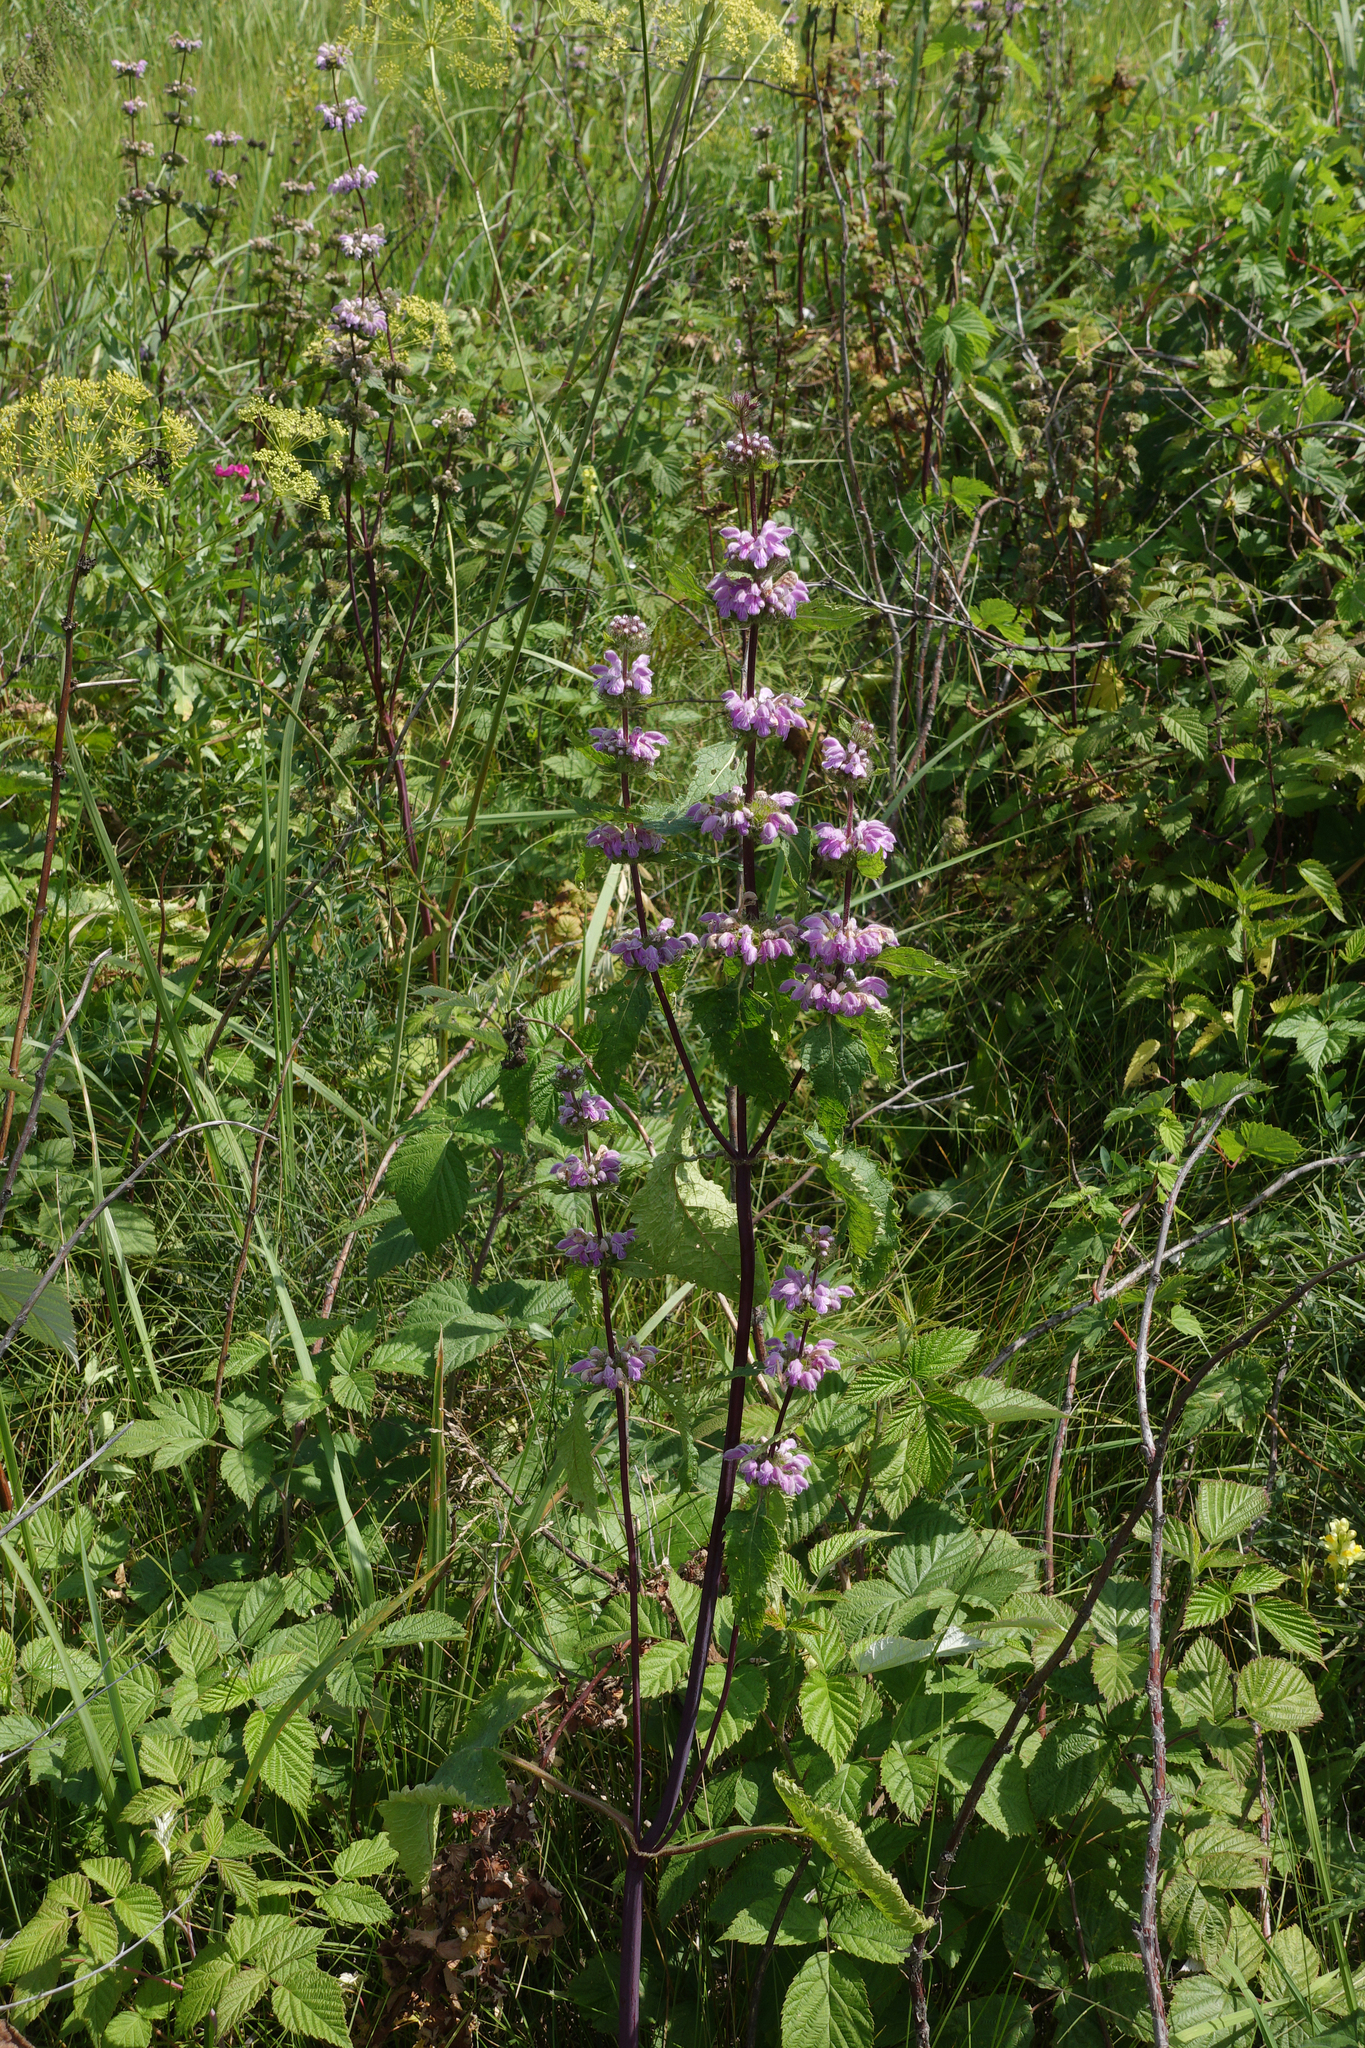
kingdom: Plantae
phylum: Tracheophyta
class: Magnoliopsida
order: Lamiales
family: Lamiaceae
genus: Phlomoides
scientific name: Phlomoides tuberosa
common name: Tuberous jerusalem sage
